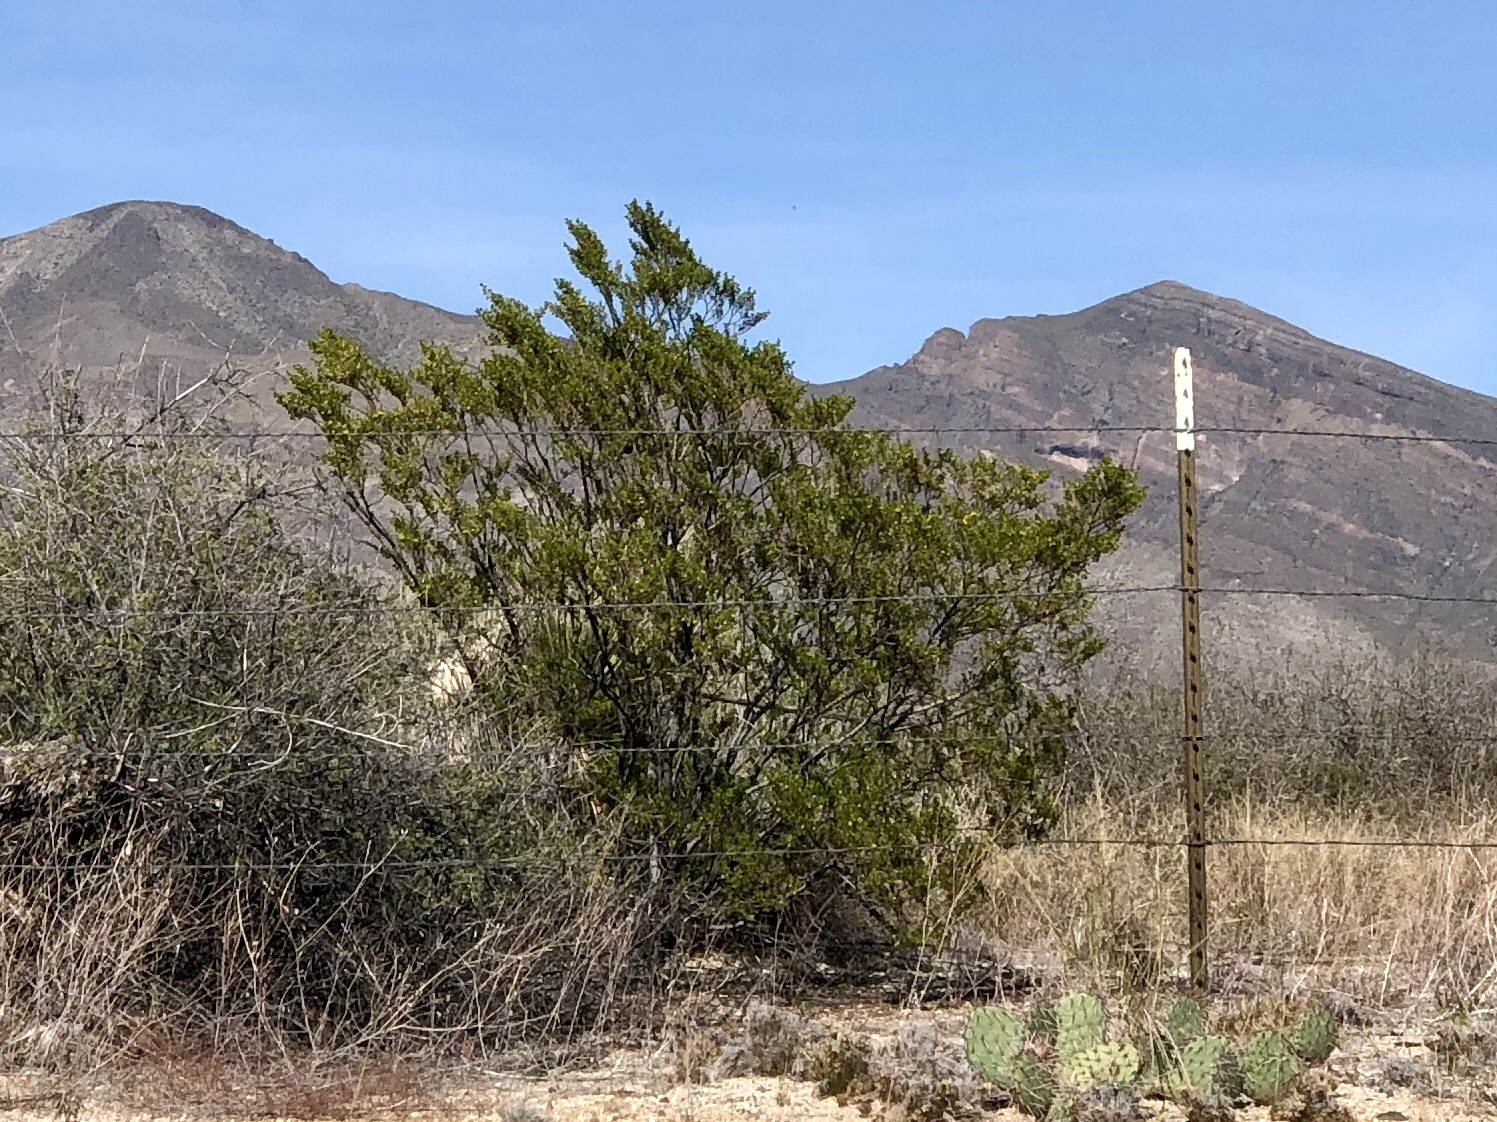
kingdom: Plantae
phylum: Tracheophyta
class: Magnoliopsida
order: Zygophyllales
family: Zygophyllaceae
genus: Larrea
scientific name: Larrea tridentata
